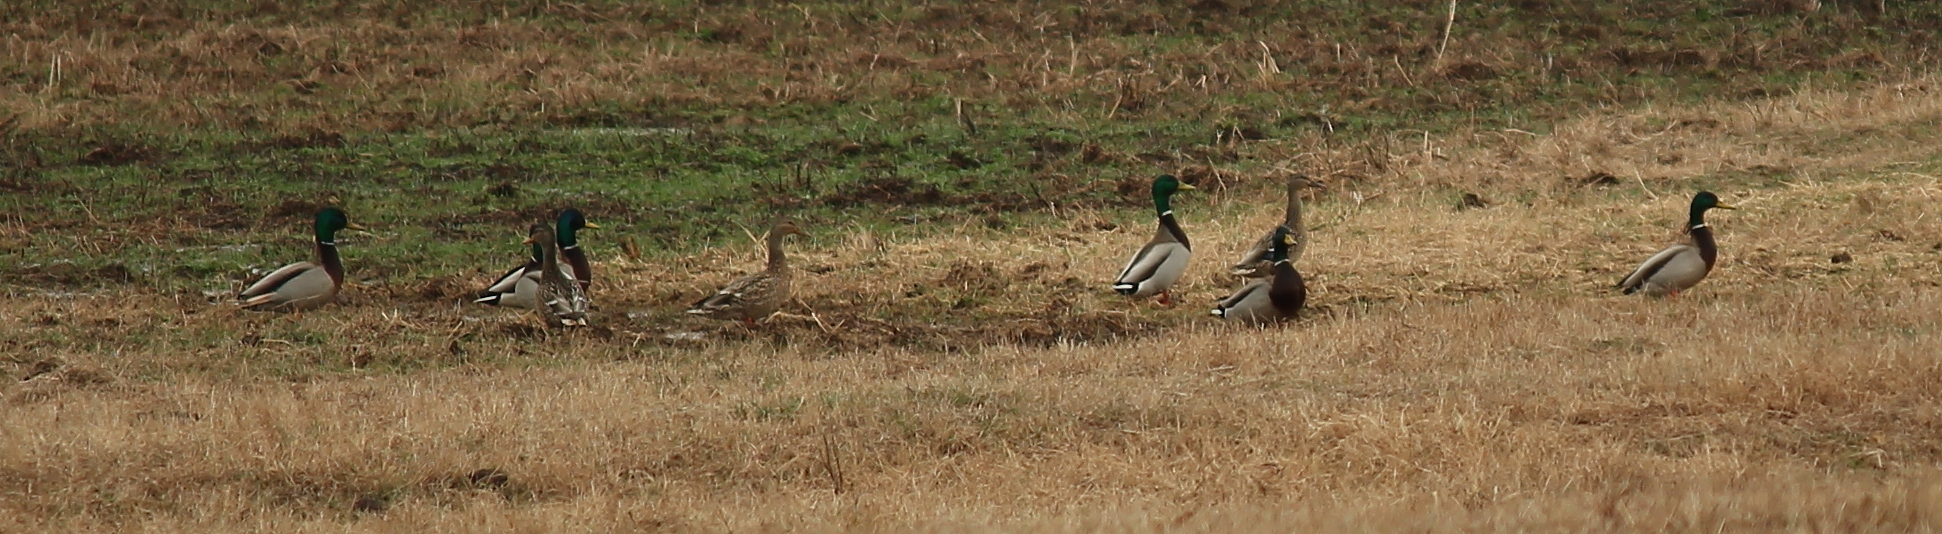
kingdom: Animalia
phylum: Chordata
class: Aves
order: Anseriformes
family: Anatidae
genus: Anas
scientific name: Anas platyrhynchos
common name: Mallard
